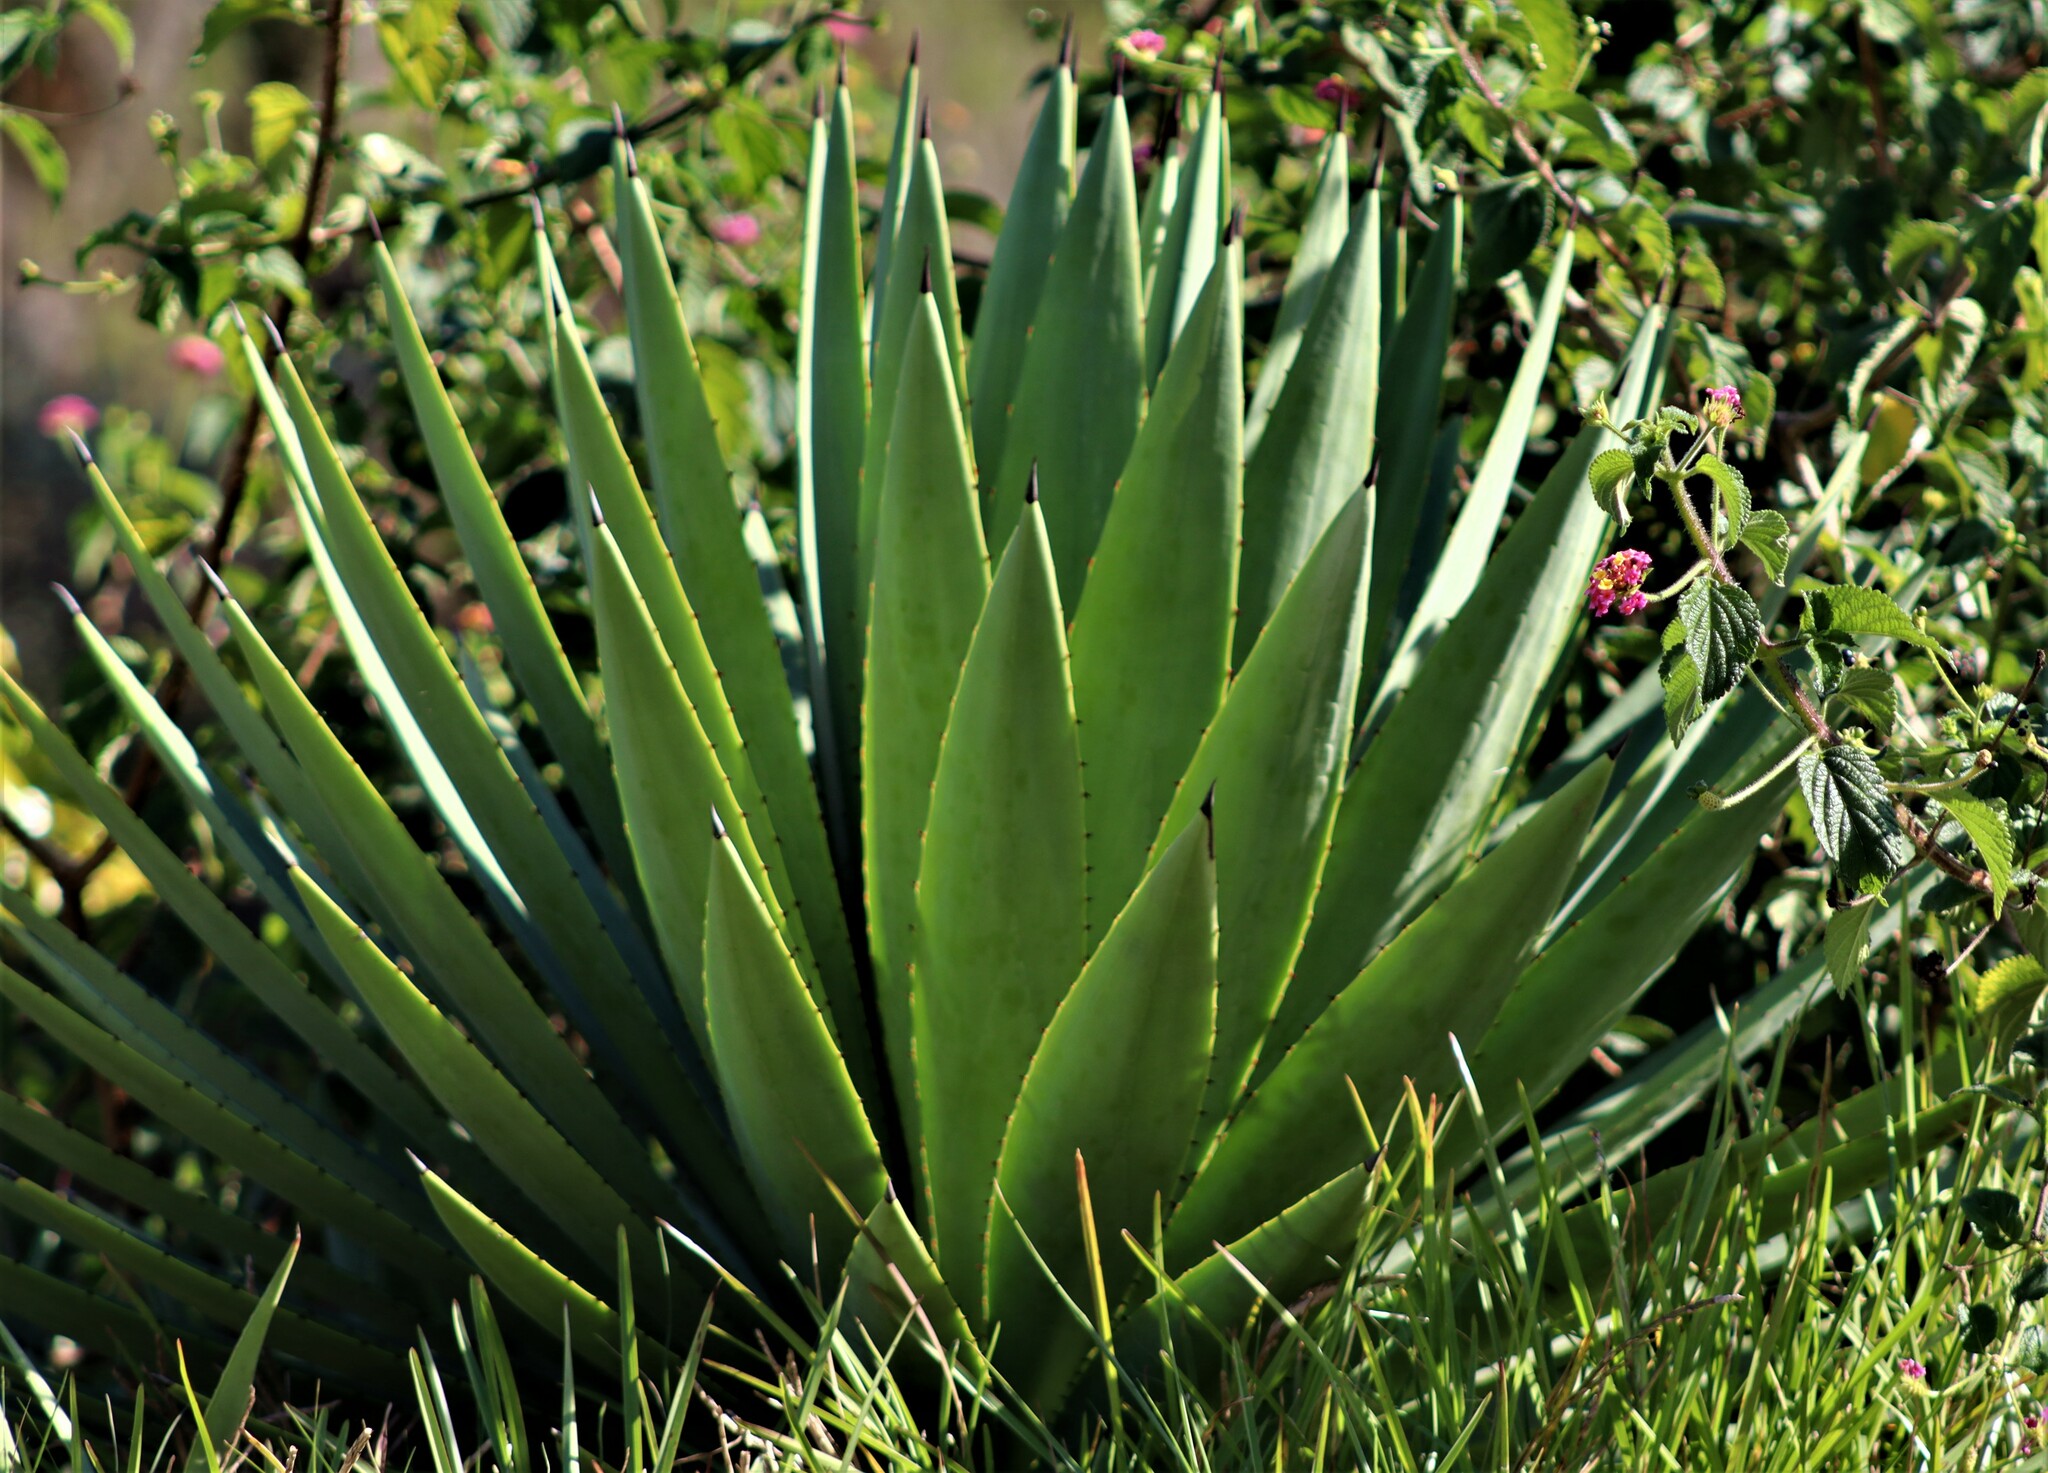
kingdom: Plantae
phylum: Tracheophyta
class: Liliopsida
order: Asparagales
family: Asparagaceae
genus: Agave
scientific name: Agave angustifolia
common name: Mescal agave
